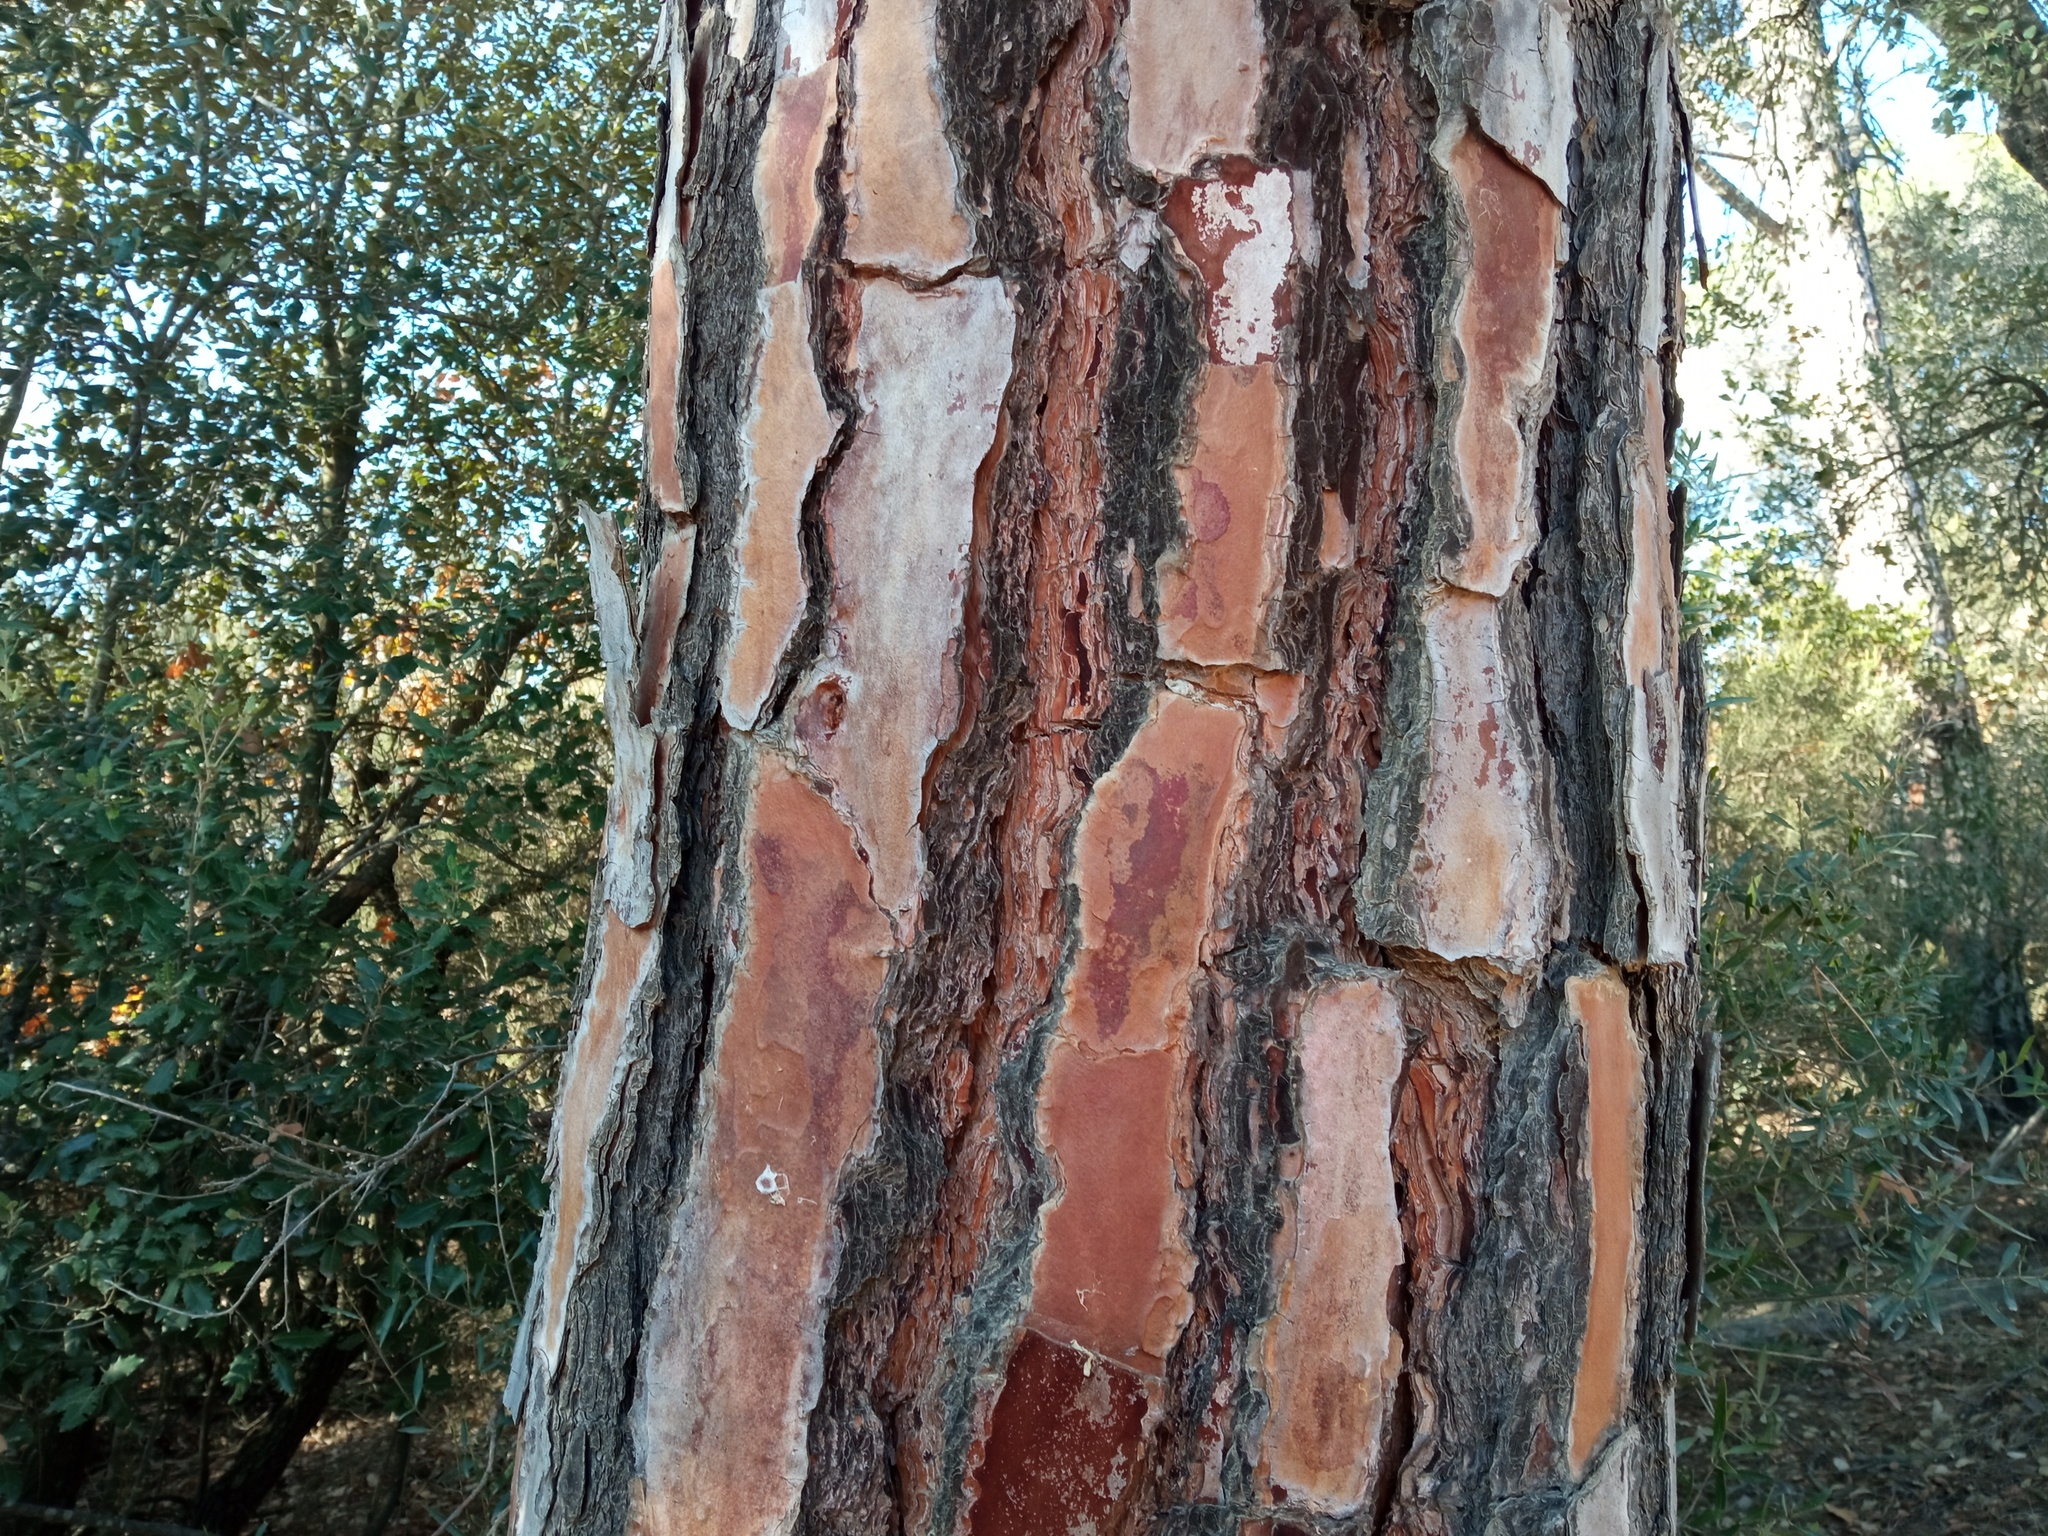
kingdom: Plantae
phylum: Tracheophyta
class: Pinopsida
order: Pinales
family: Pinaceae
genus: Pinus
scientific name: Pinus pinea
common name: Italian stone pine
